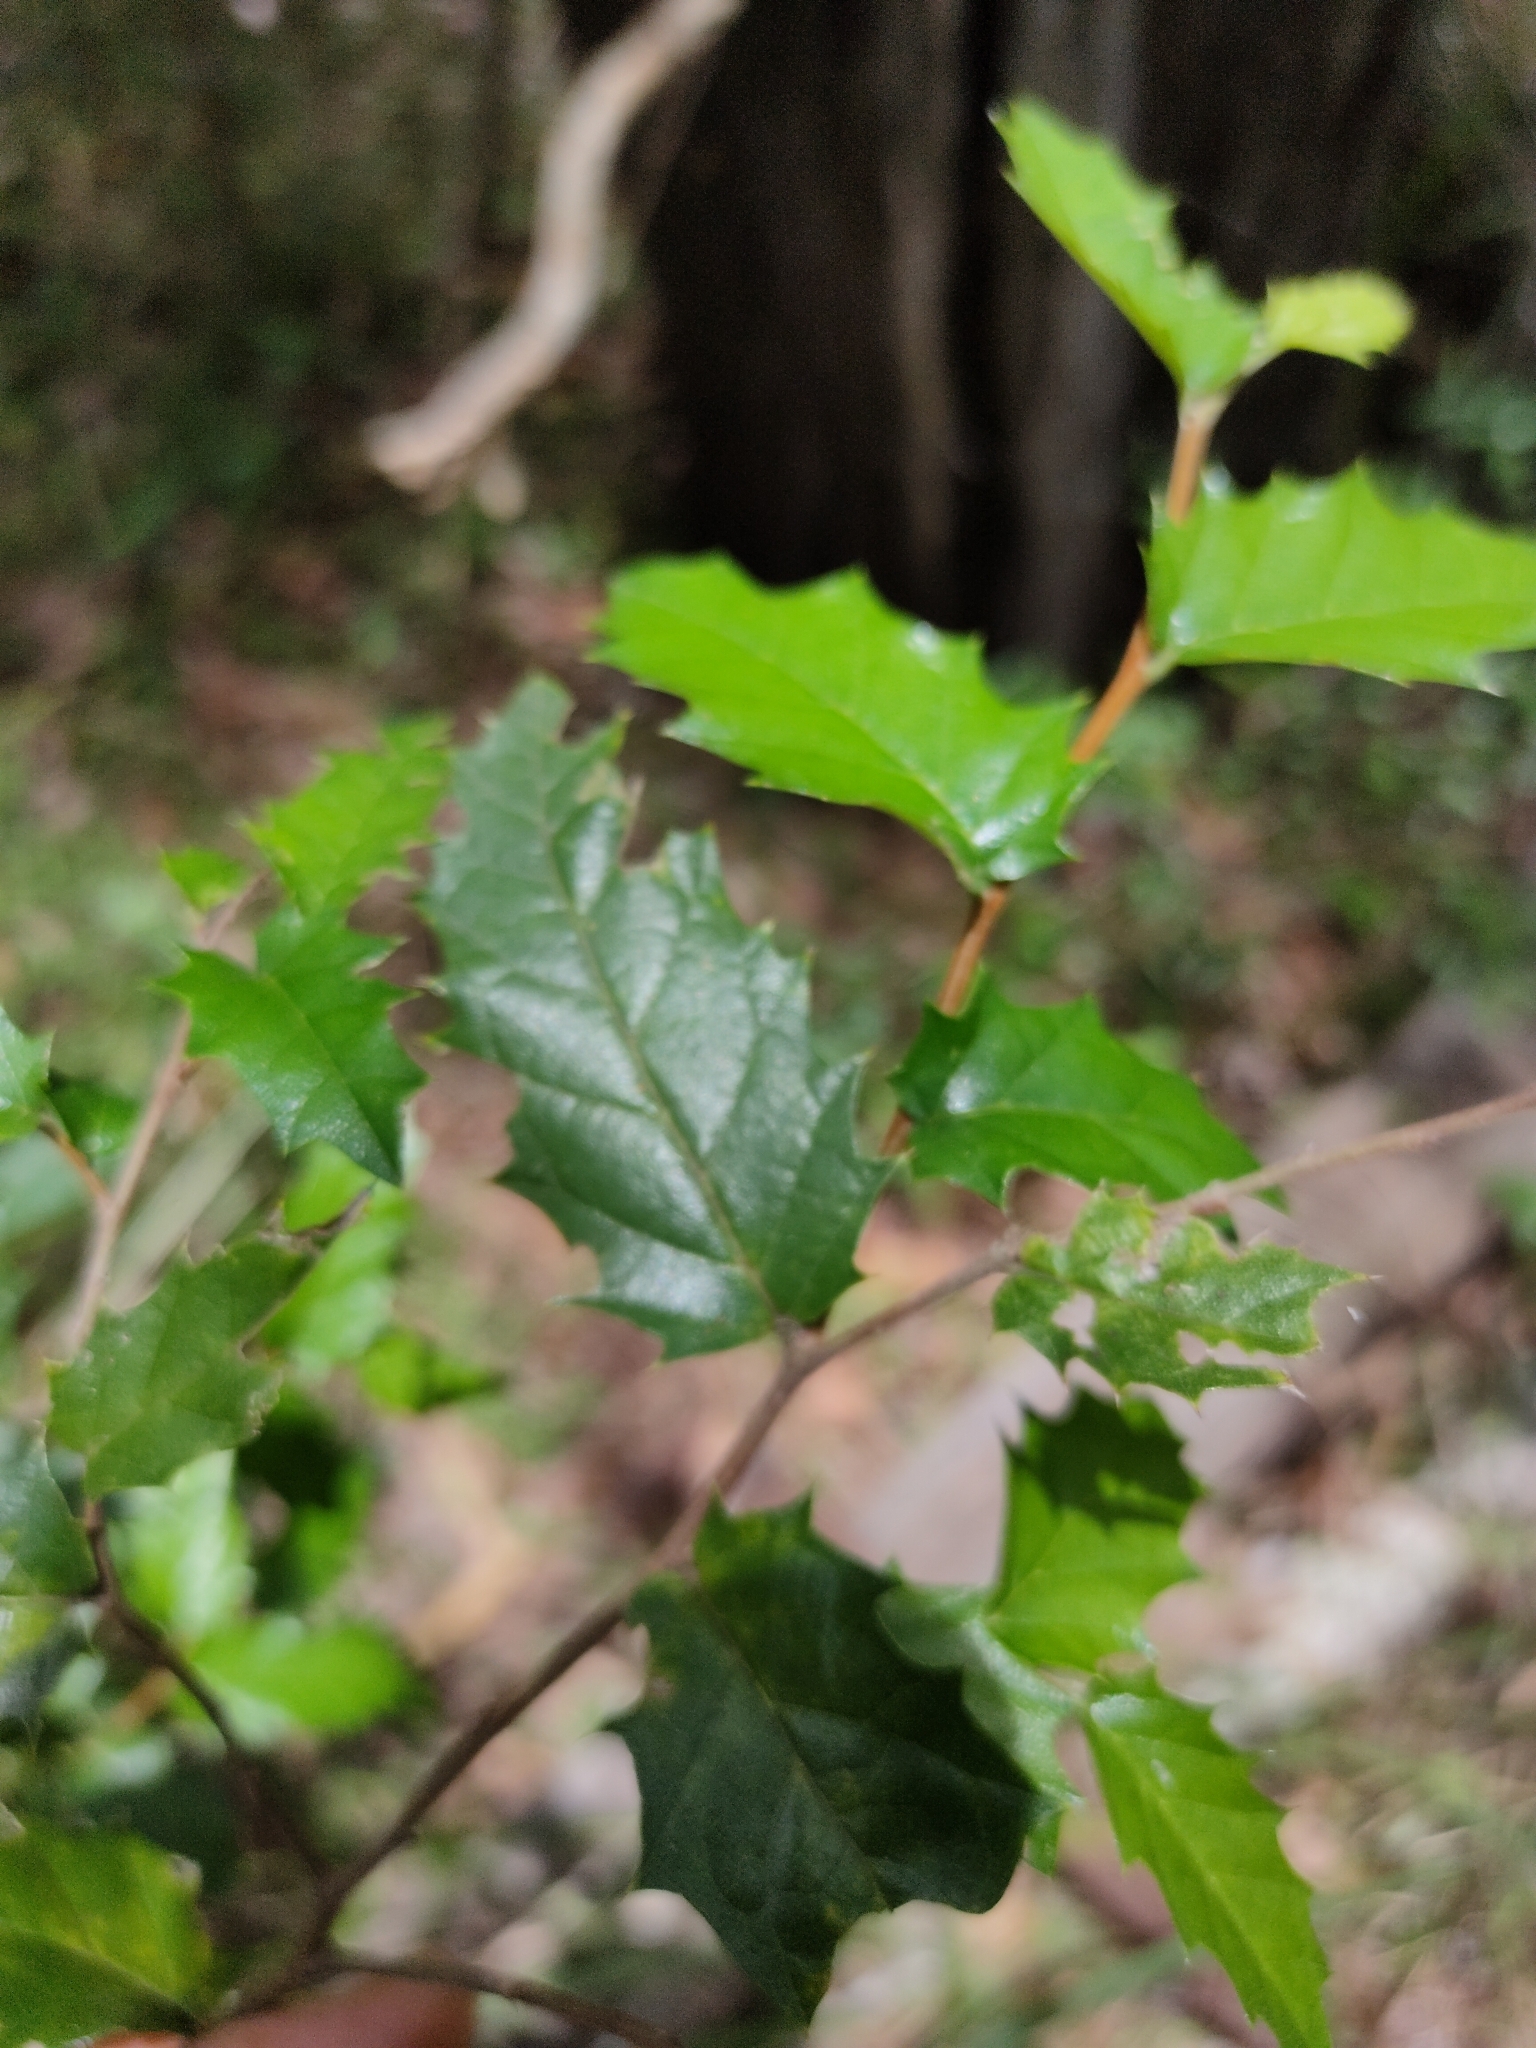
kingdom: Plantae
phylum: Tracheophyta
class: Magnoliopsida
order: Rosales
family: Cannabaceae
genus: Aphananthe
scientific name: Aphananthe philippinensis
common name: Wild holly
